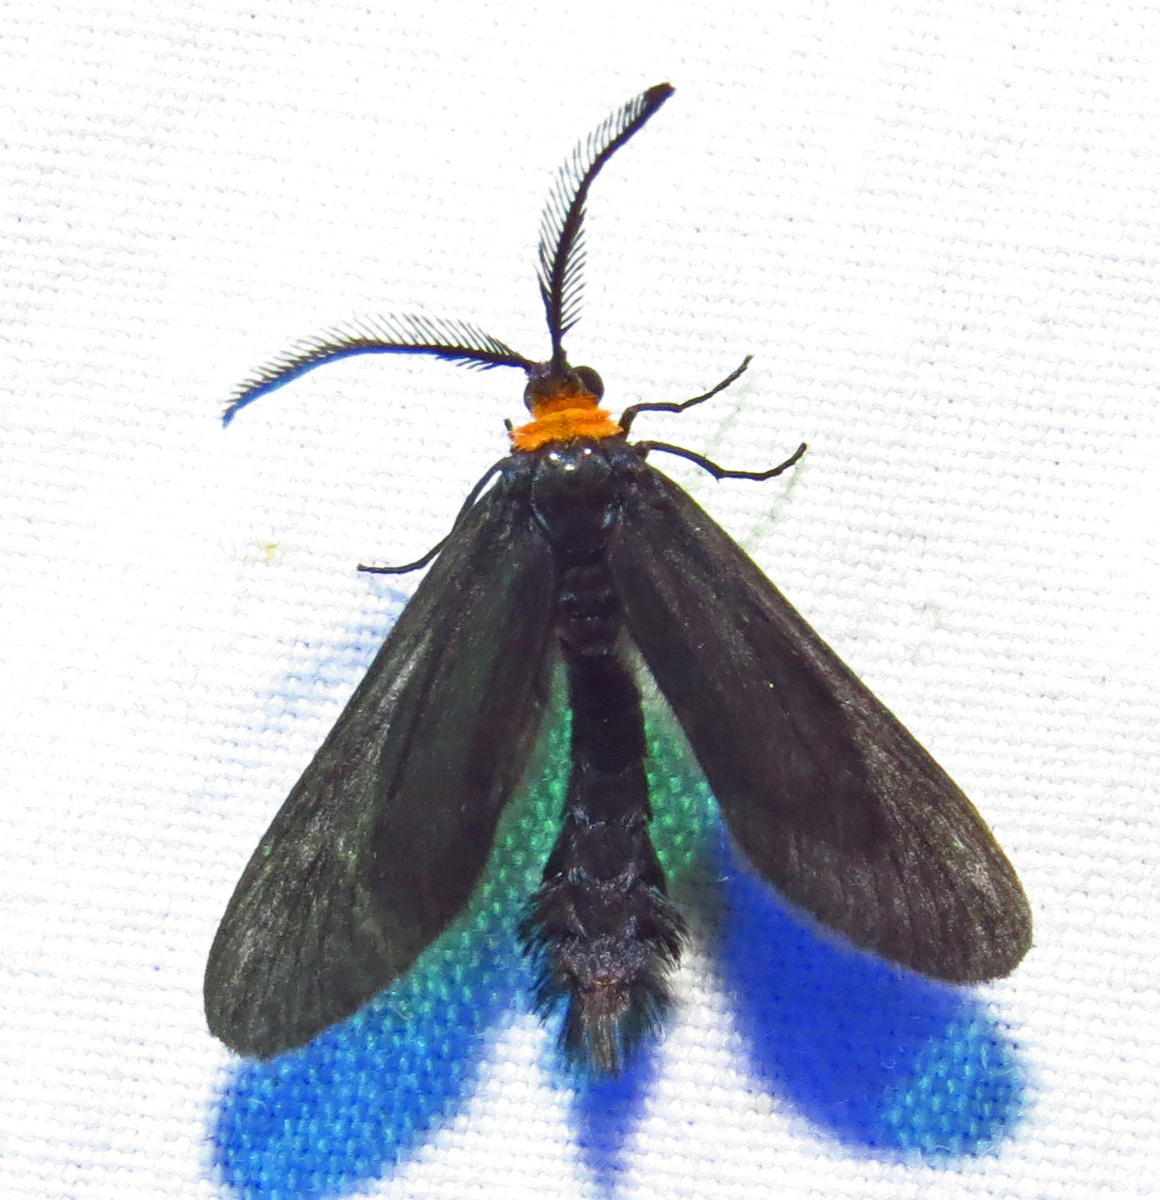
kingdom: Animalia
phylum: Arthropoda
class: Insecta
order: Lepidoptera
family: Zygaenidae
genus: Harrisina
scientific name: Harrisina americana
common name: Grapeleaf skeletonizer moth
